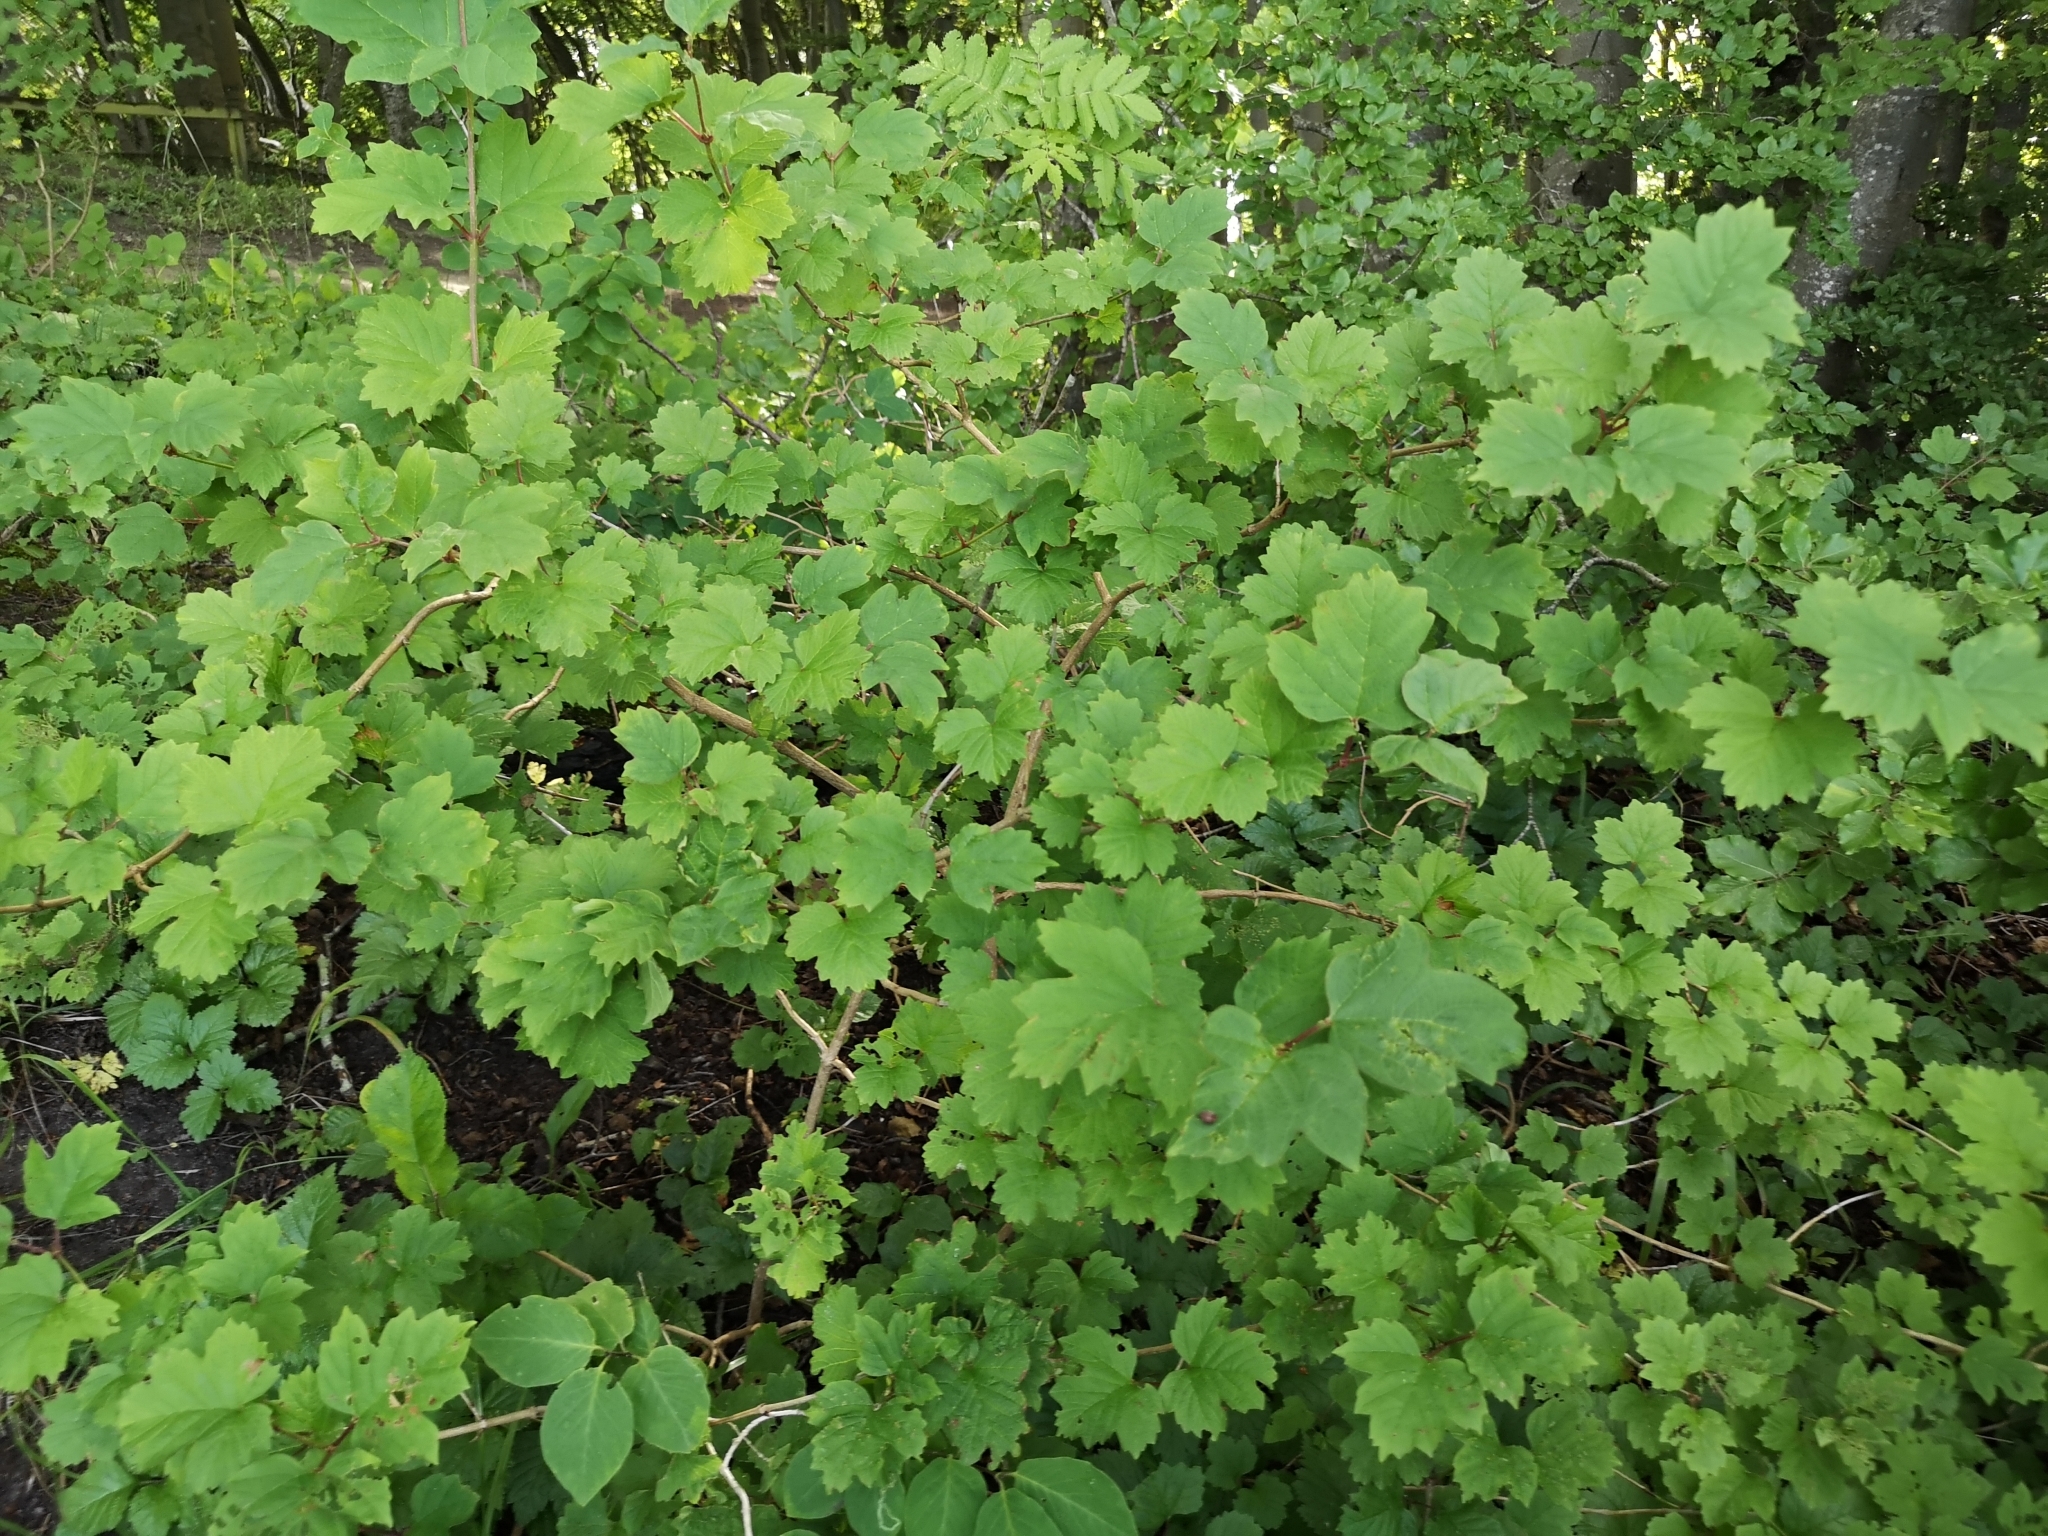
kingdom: Plantae
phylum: Tracheophyta
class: Magnoliopsida
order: Dipsacales
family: Viburnaceae
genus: Viburnum
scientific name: Viburnum opulus
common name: Guelder-rose
